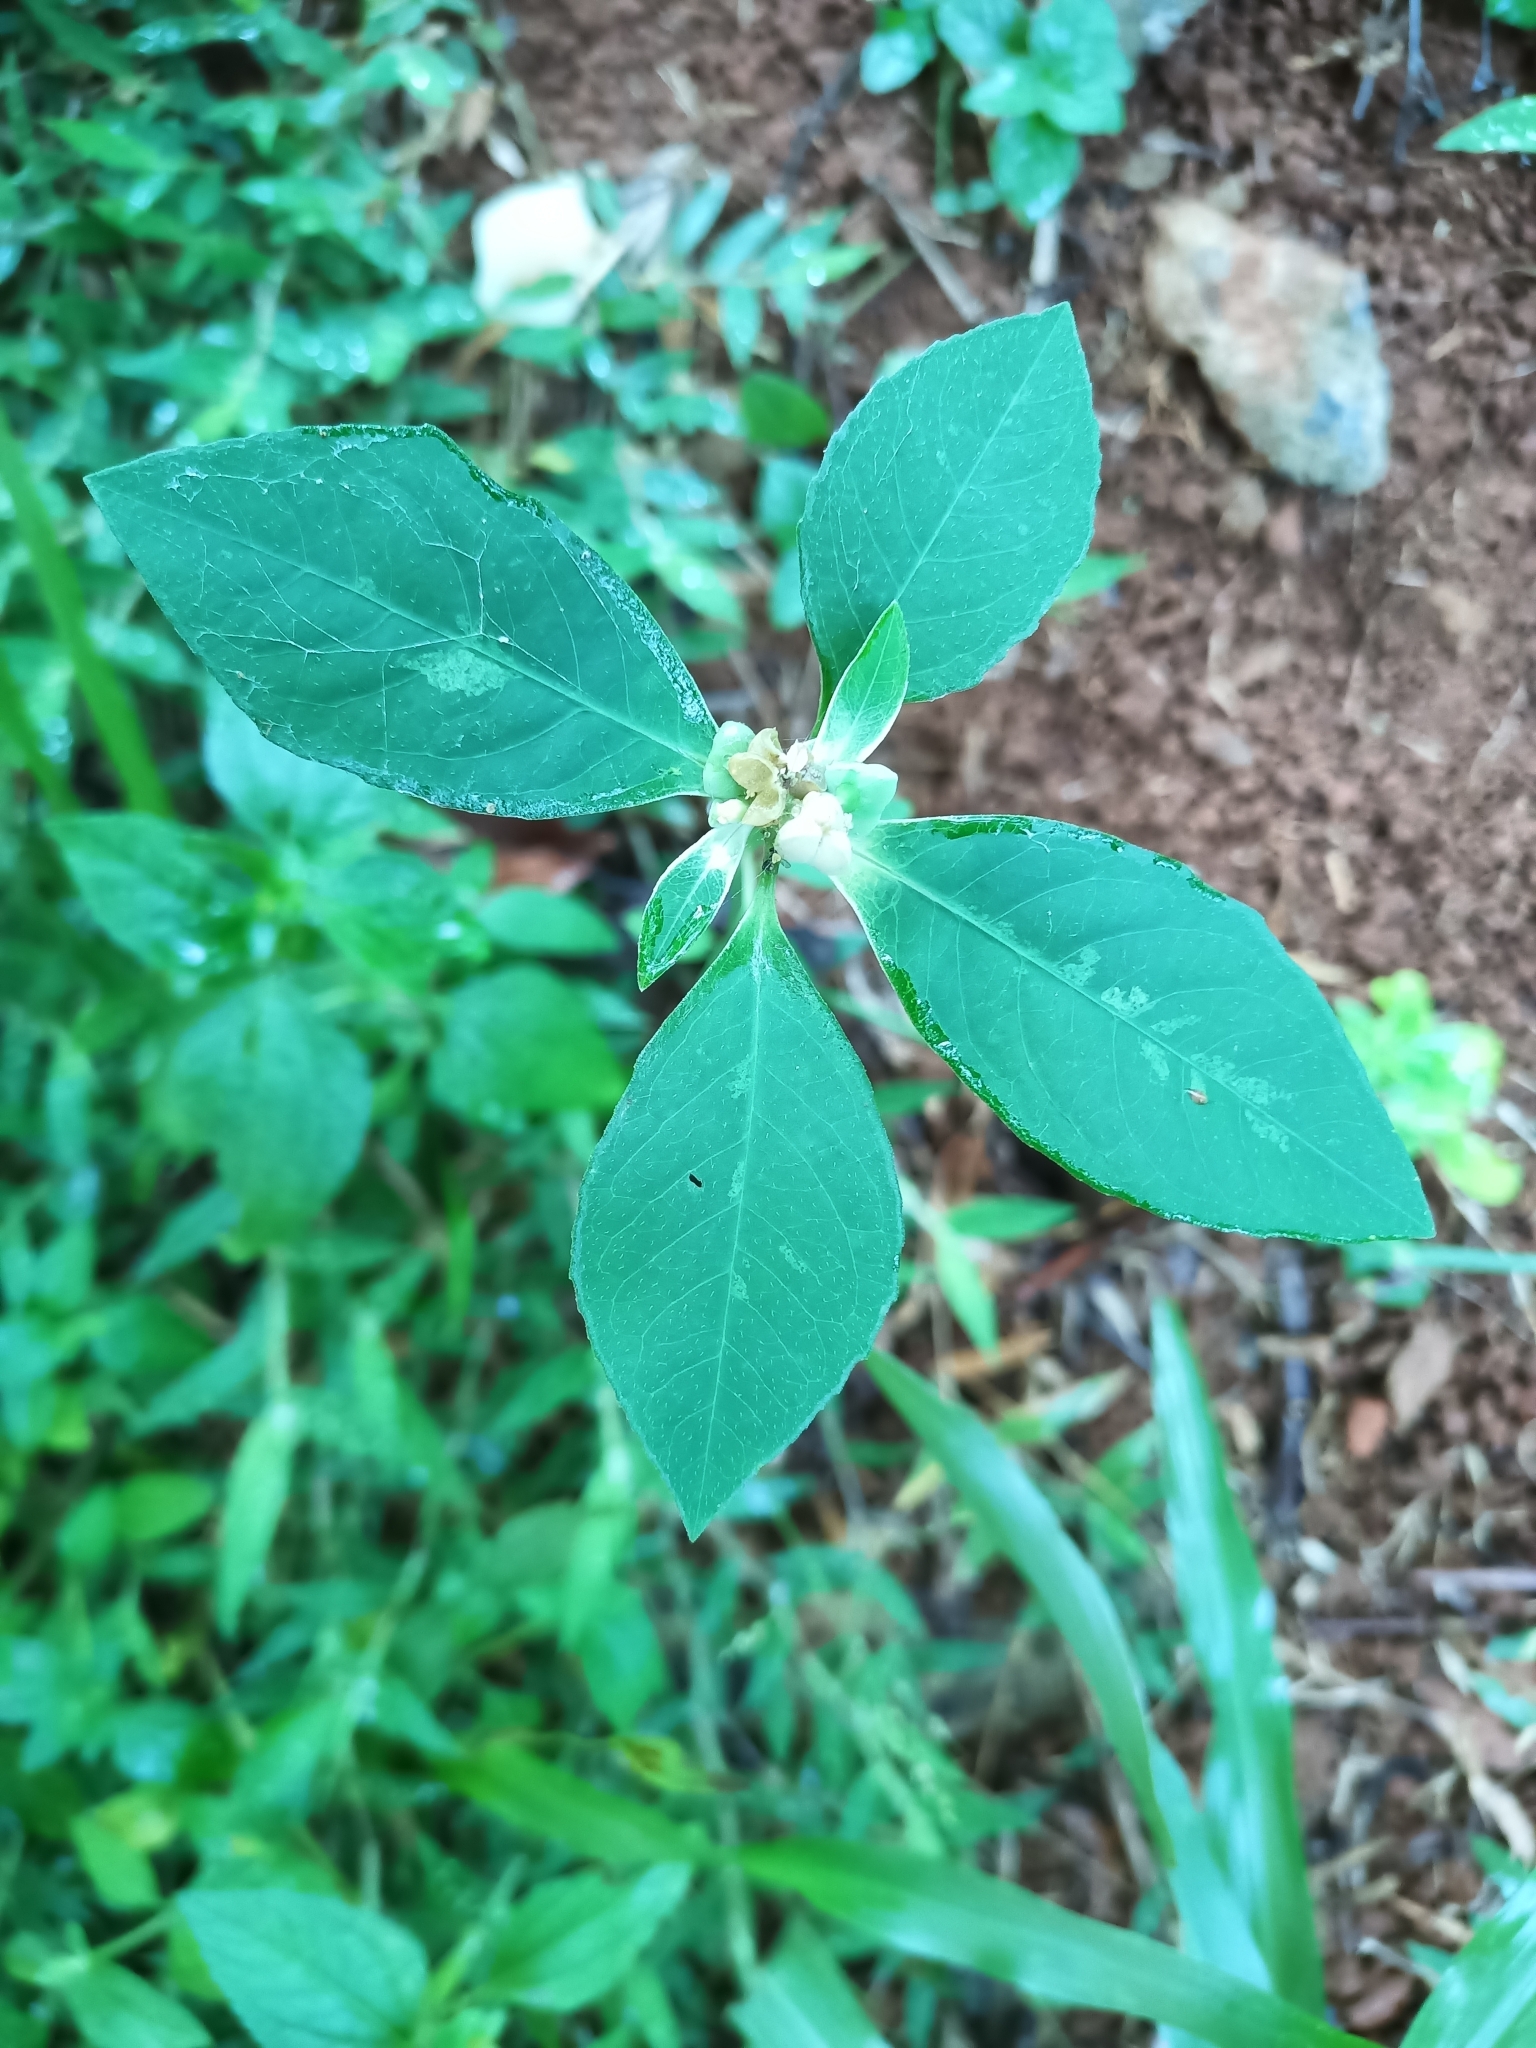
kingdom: Plantae
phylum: Tracheophyta
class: Magnoliopsida
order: Malpighiales
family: Euphorbiaceae
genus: Euphorbia
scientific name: Euphorbia heterophylla
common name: Mexican fireplant
